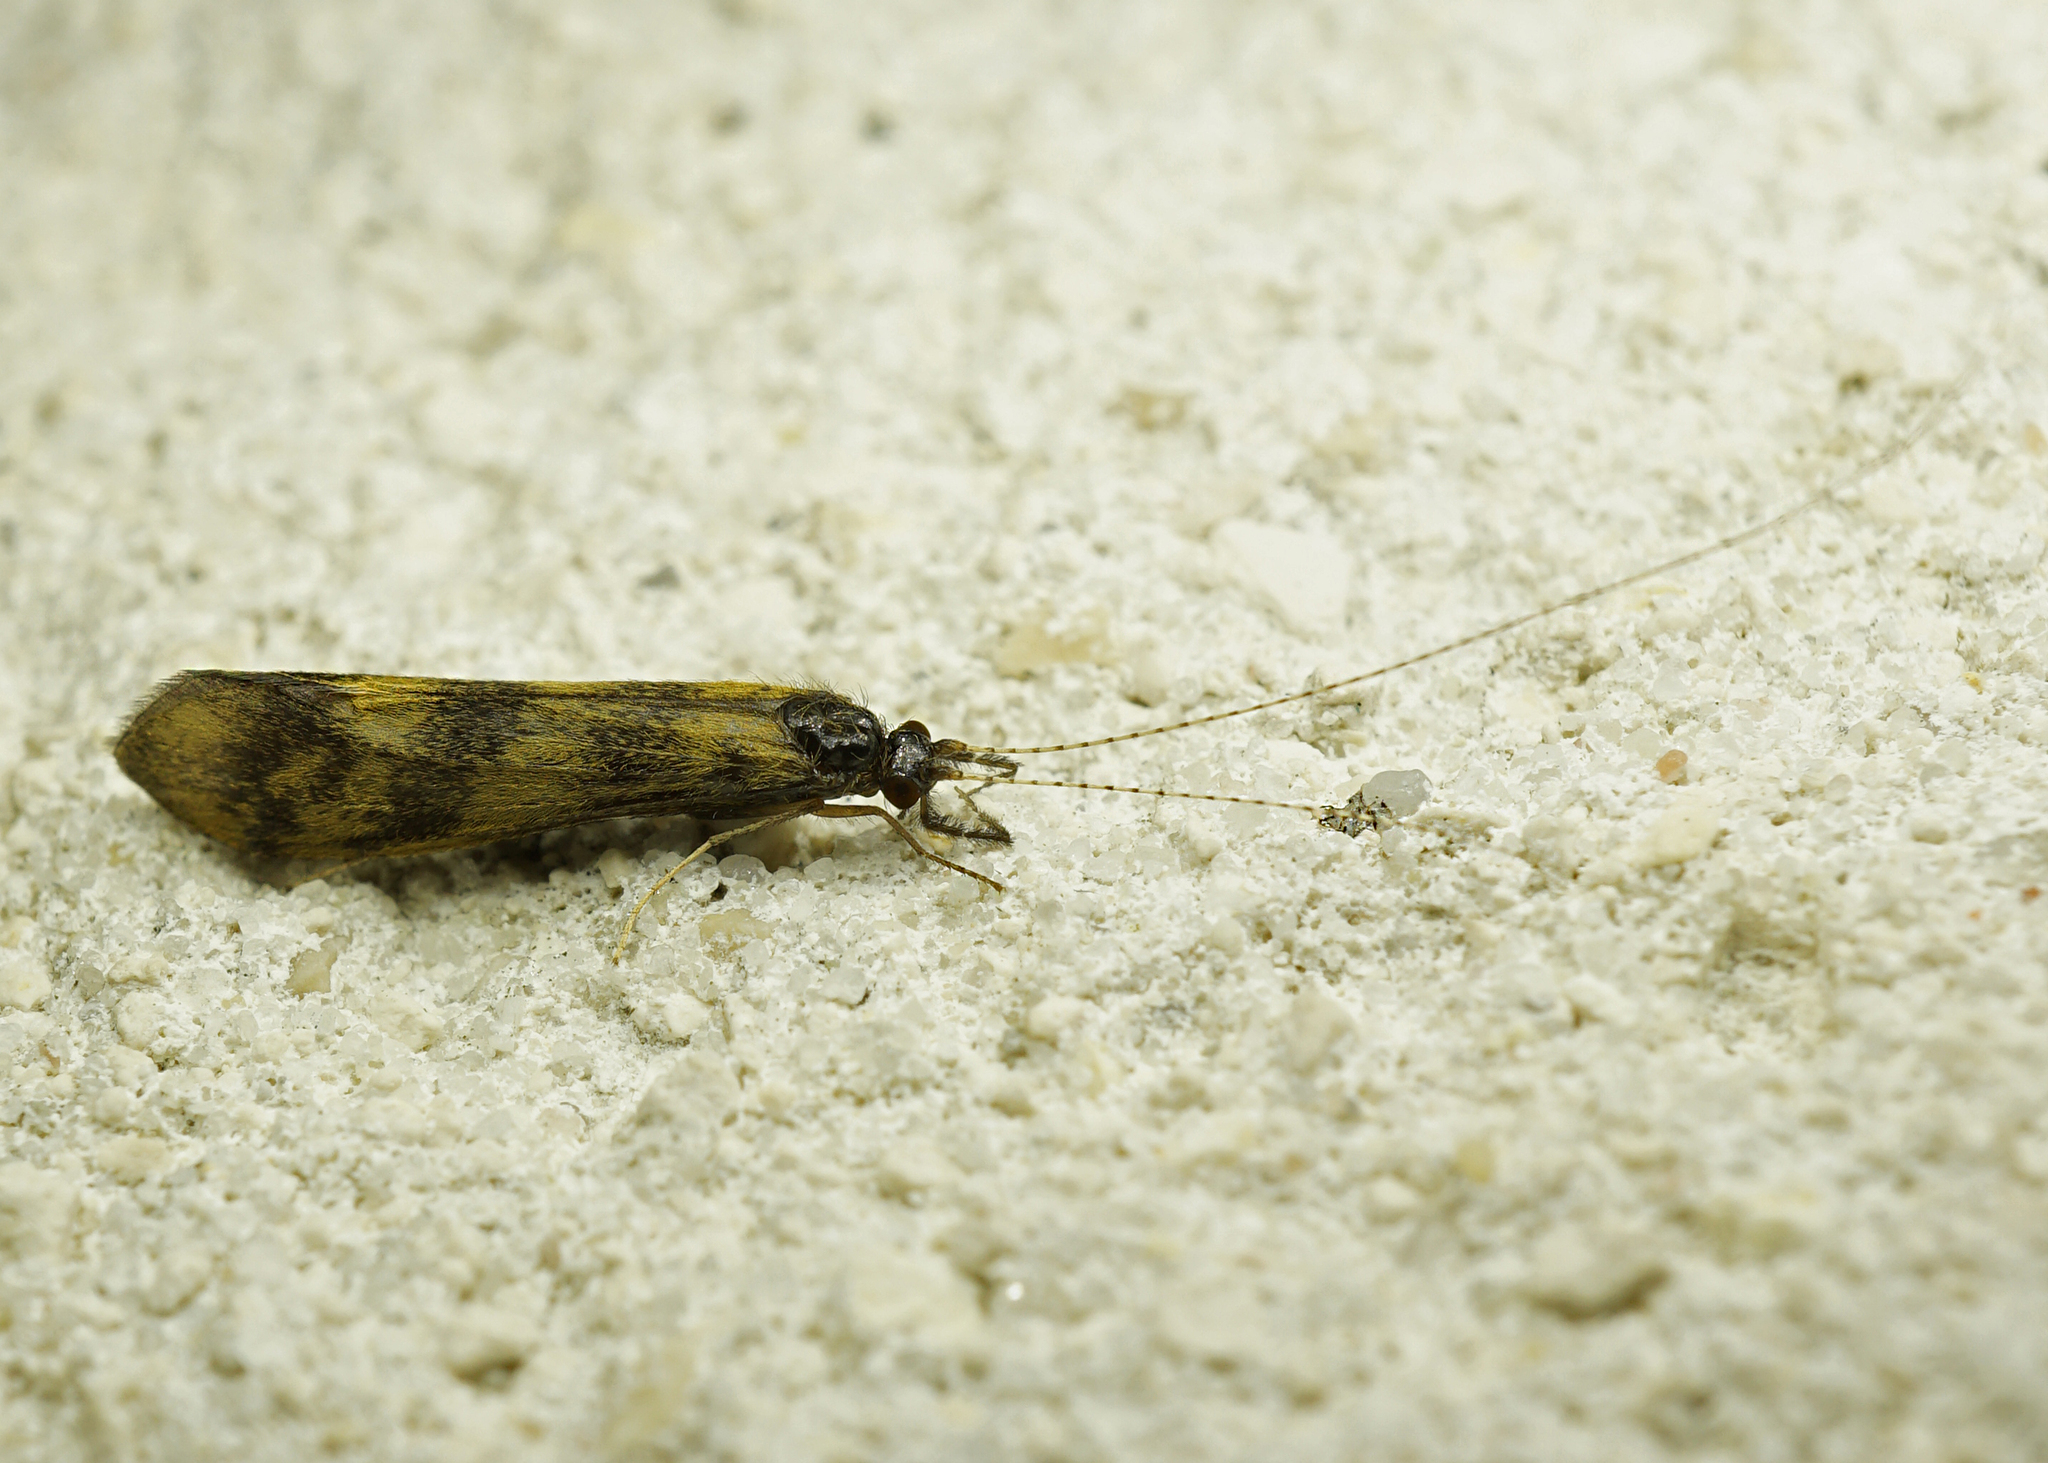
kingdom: Animalia
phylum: Arthropoda
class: Insecta
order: Trichoptera
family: Leptoceridae
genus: Mystacides
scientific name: Mystacides longicornis
